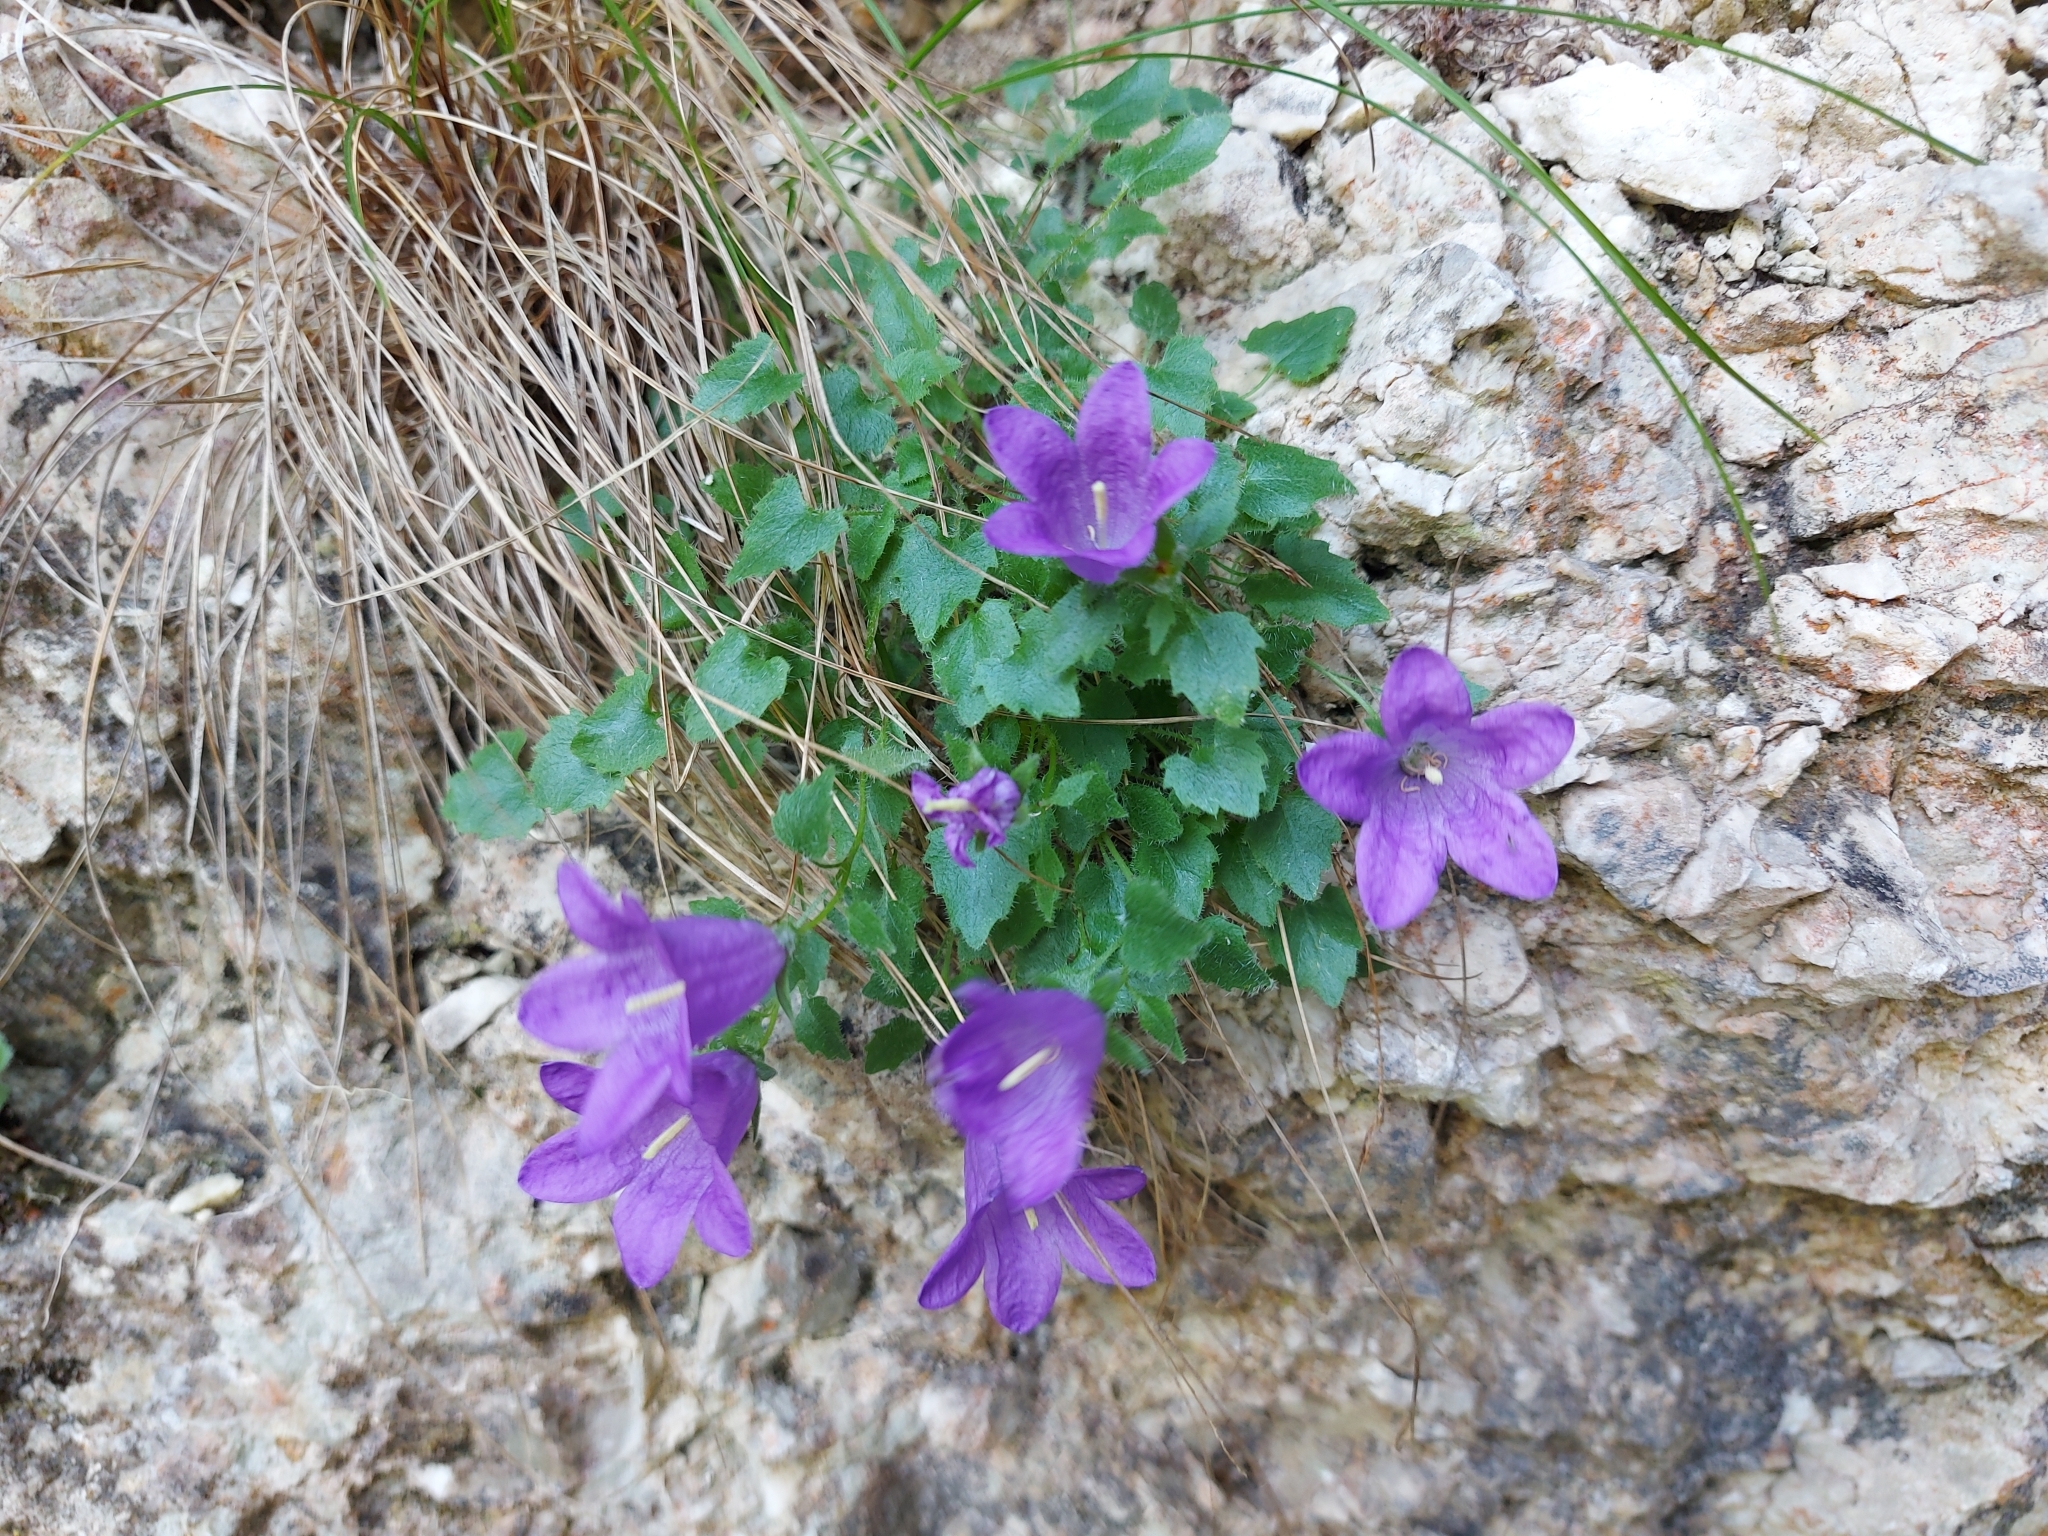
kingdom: Plantae
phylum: Tracheophyta
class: Magnoliopsida
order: Asterales
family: Campanulaceae
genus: Campanula
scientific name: Campanula morettiana
